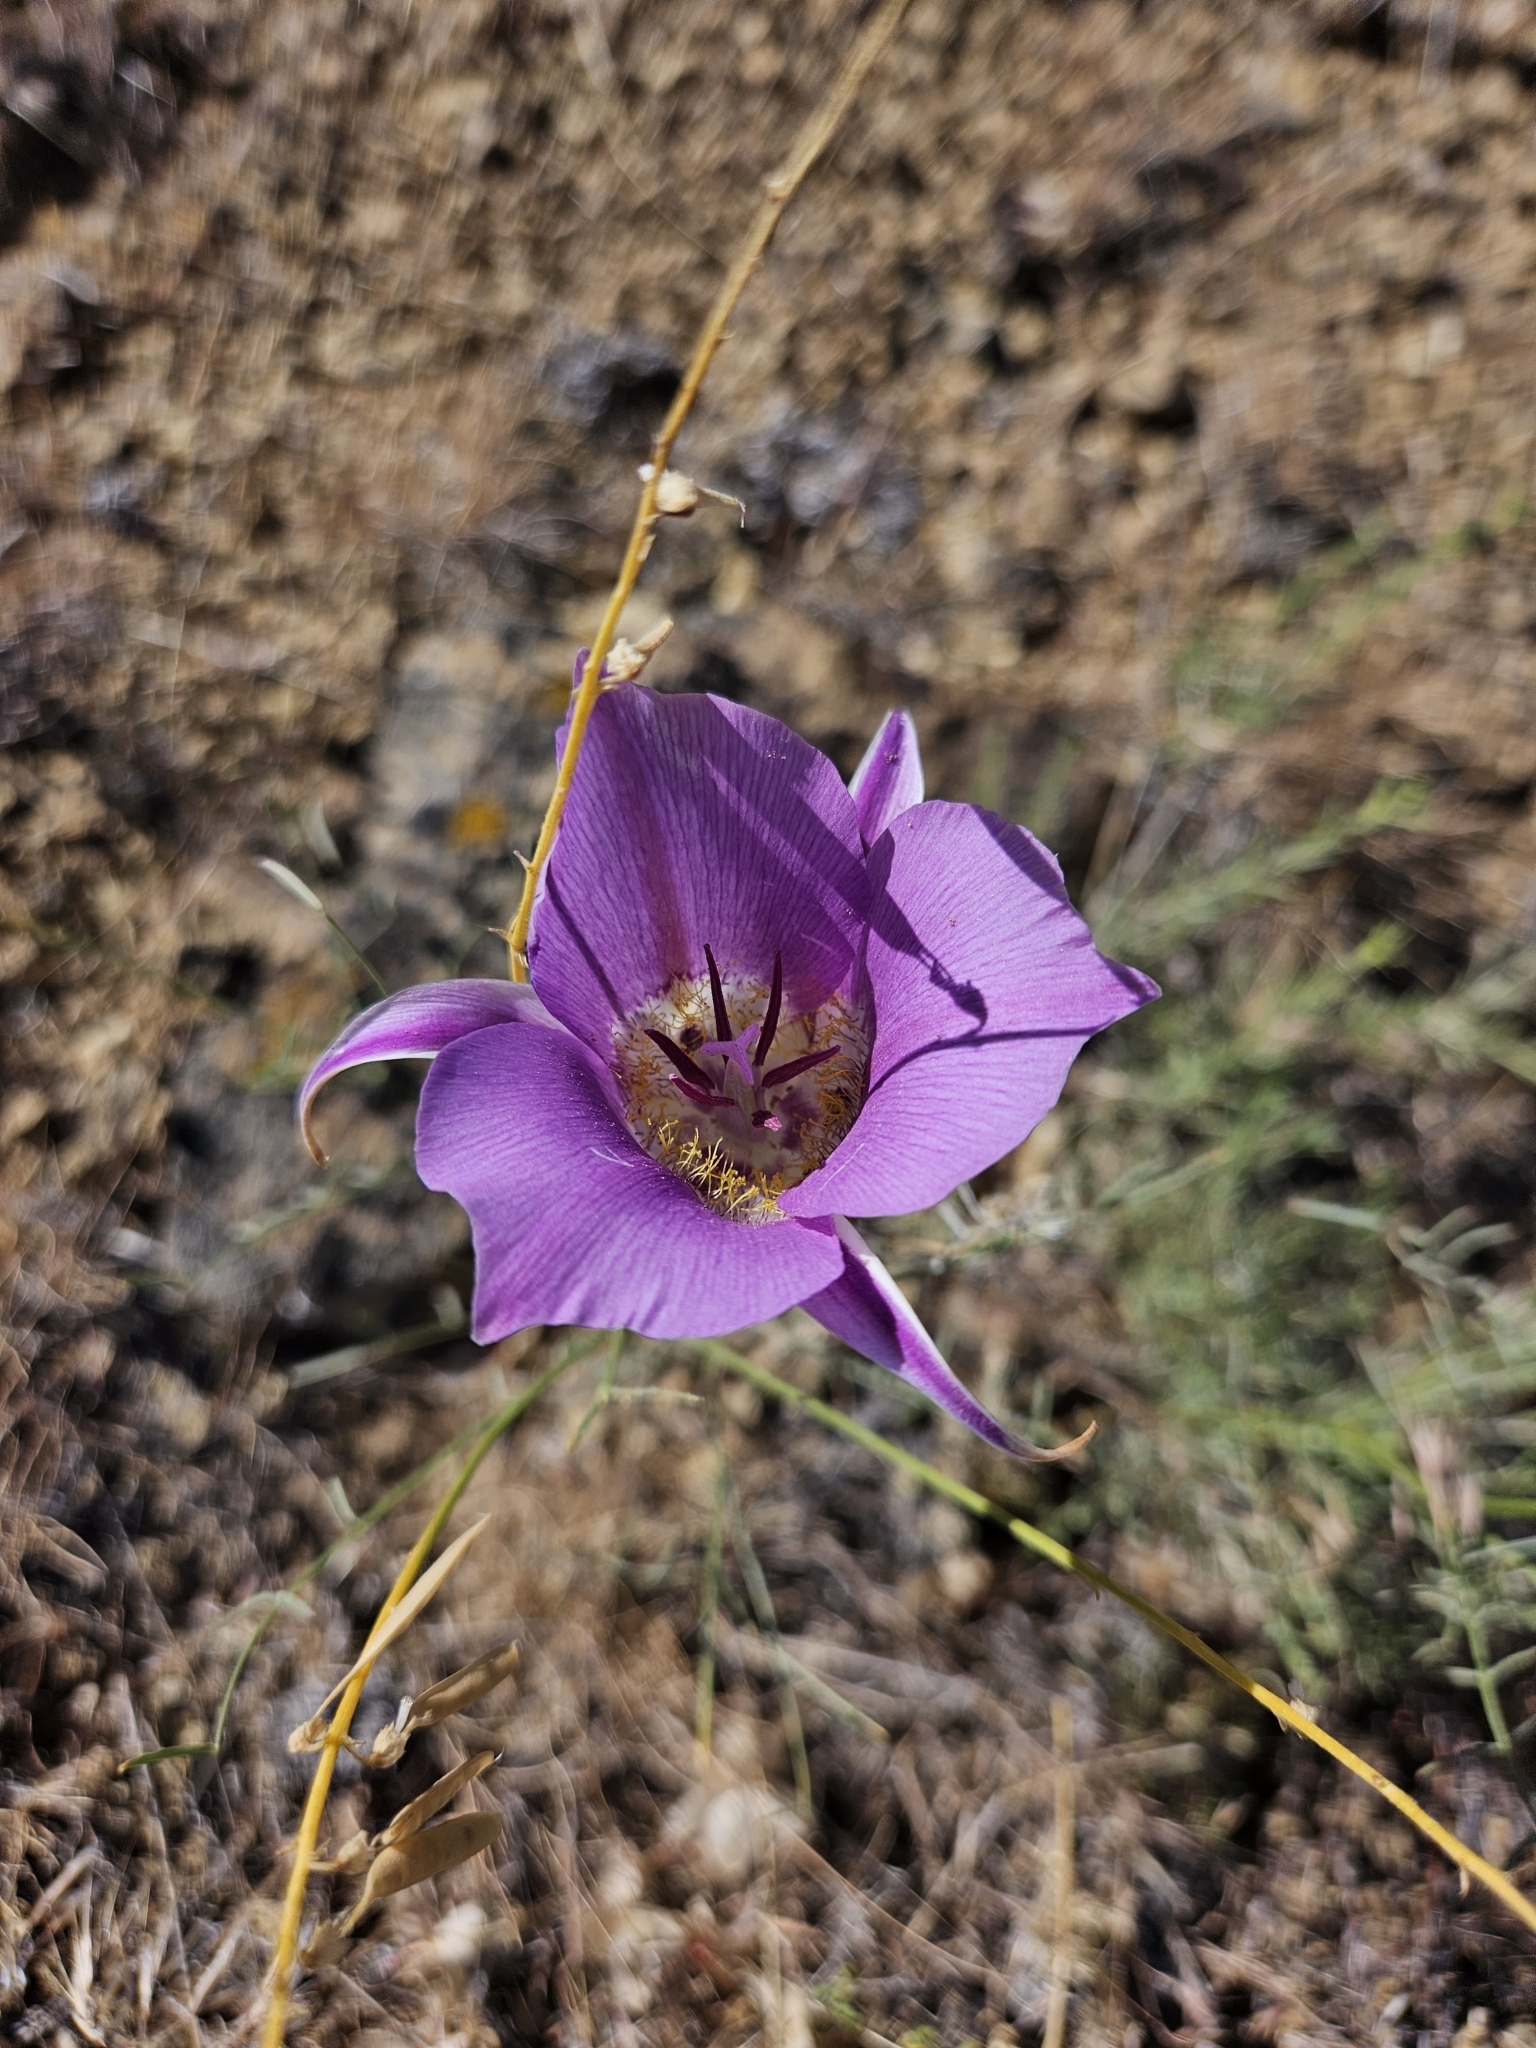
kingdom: Plantae
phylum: Tracheophyta
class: Liliopsida
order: Liliales
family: Liliaceae
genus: Calochortus
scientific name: Calochortus macrocarpus
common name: Green-band mariposa lily
